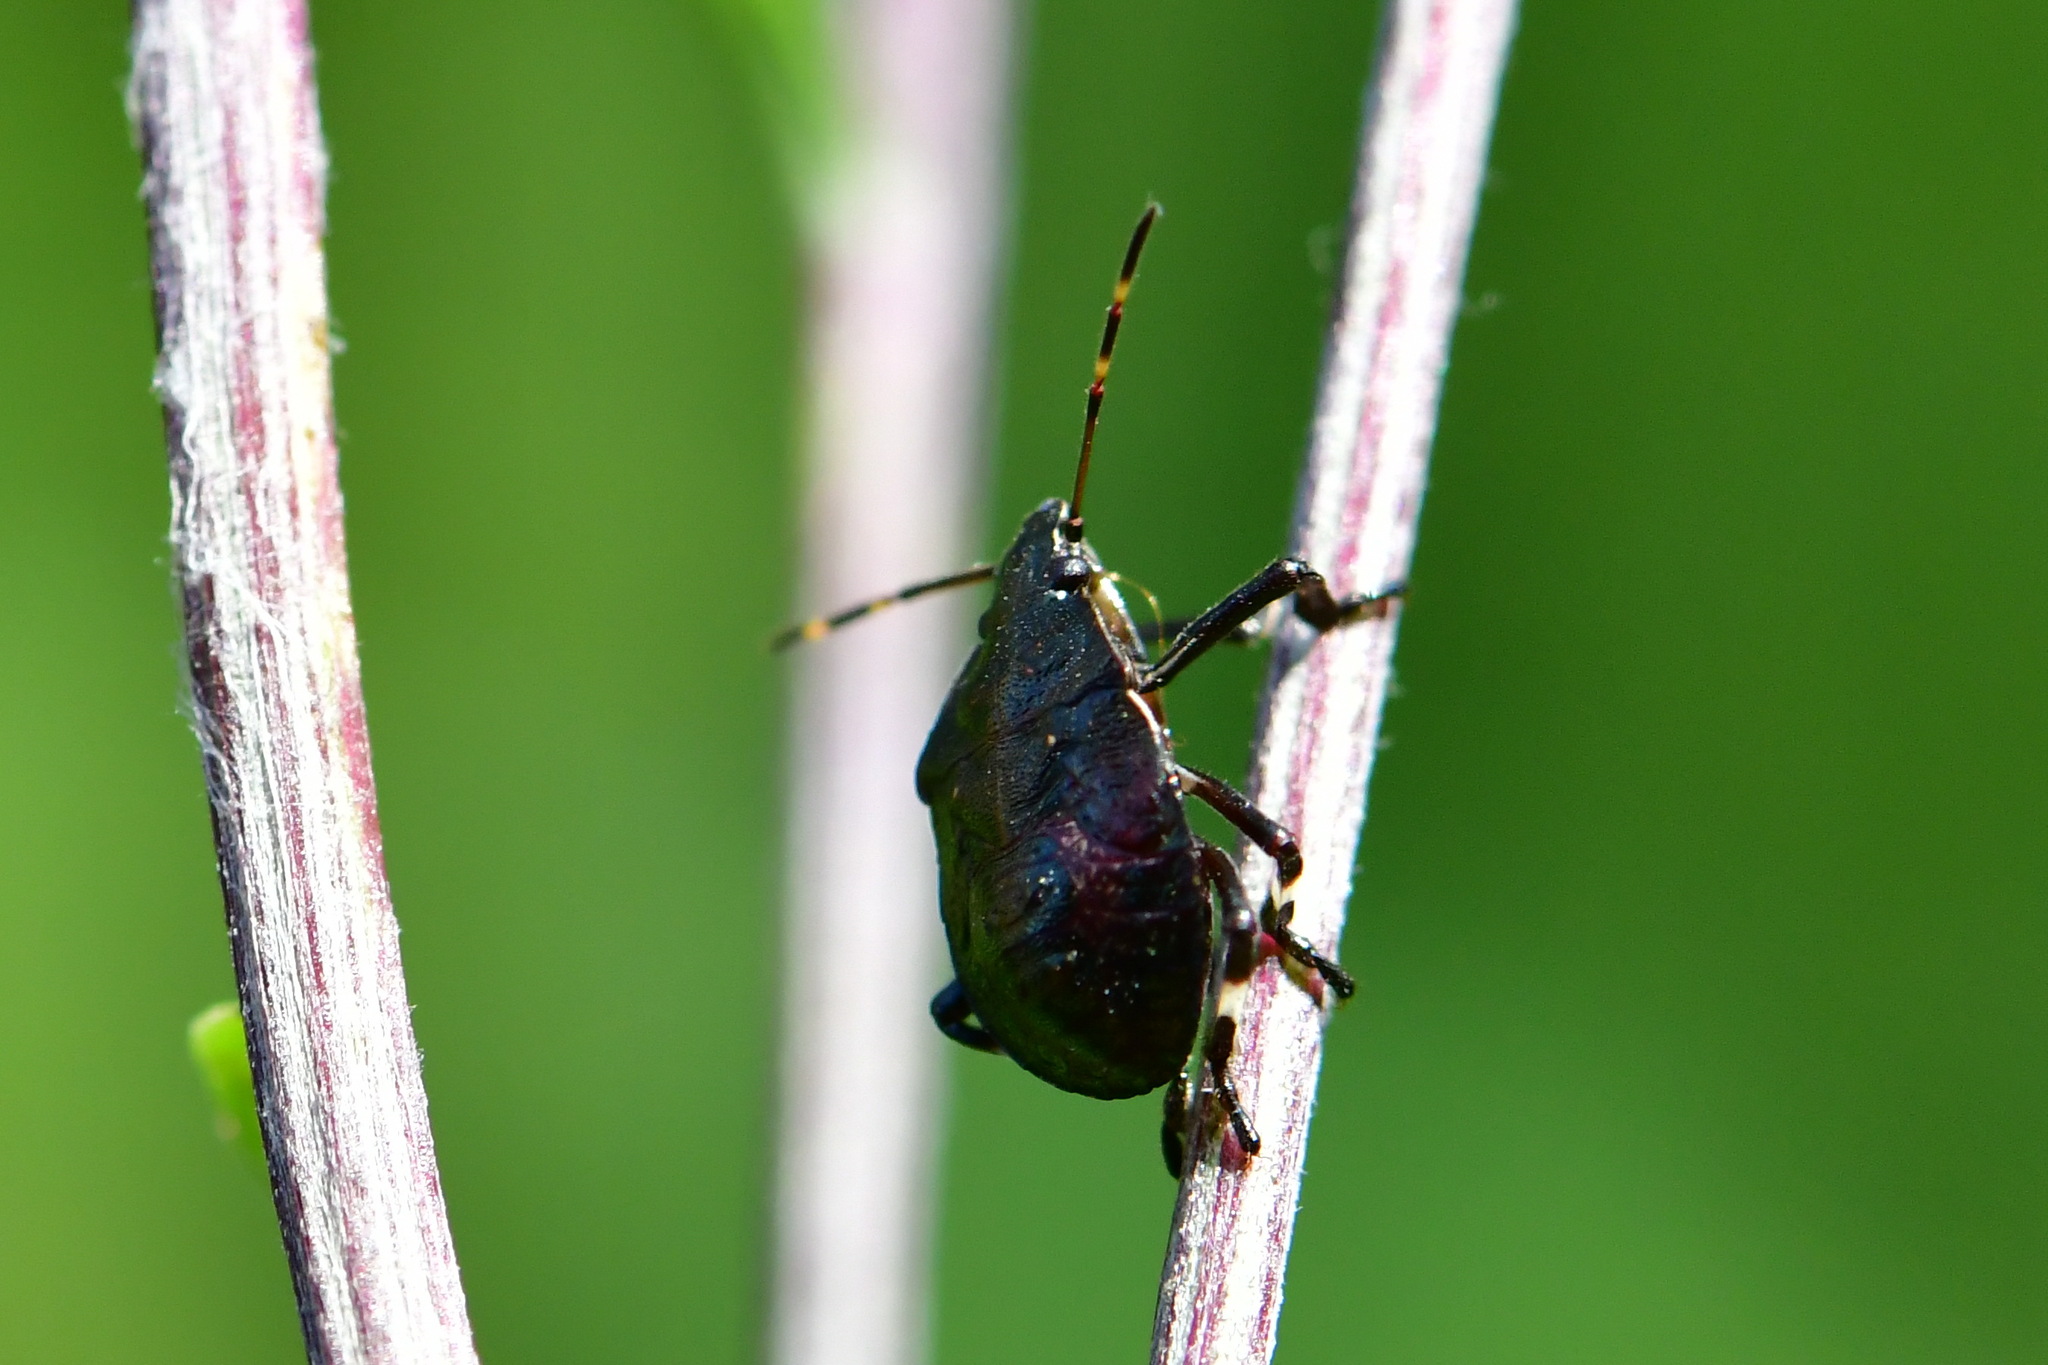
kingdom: Animalia
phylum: Arthropoda
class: Insecta
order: Hemiptera
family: Pentatomidae
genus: Picromerus
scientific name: Picromerus bidens
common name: Spiked shieldbug
